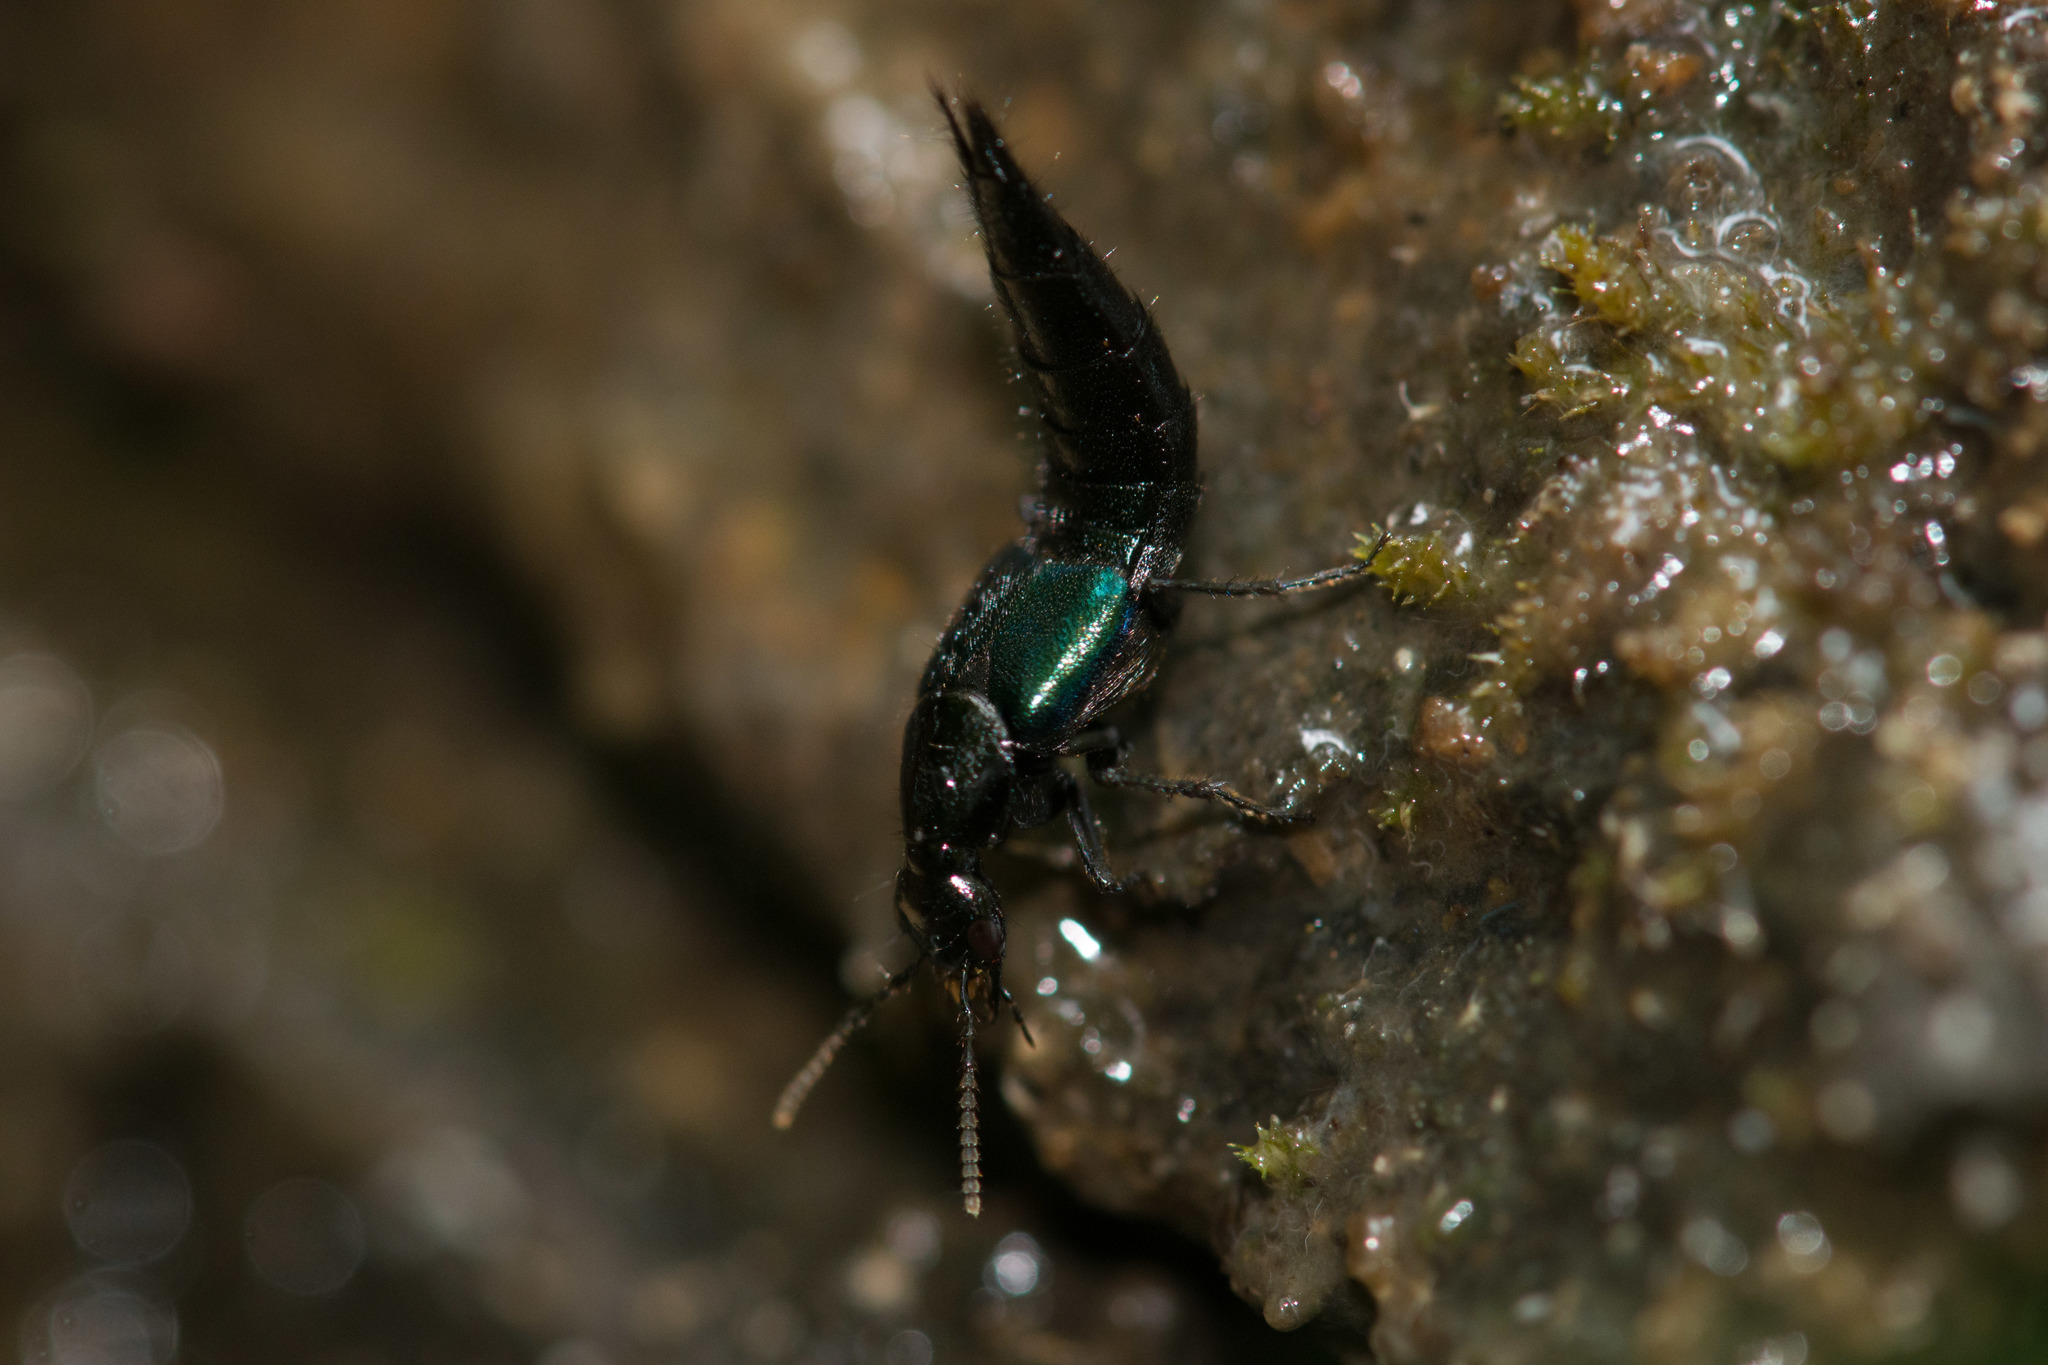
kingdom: Animalia
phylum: Arthropoda
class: Insecta
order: Coleoptera
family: Staphylinidae
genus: Philonthus
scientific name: Philonthus caeruleipennis
